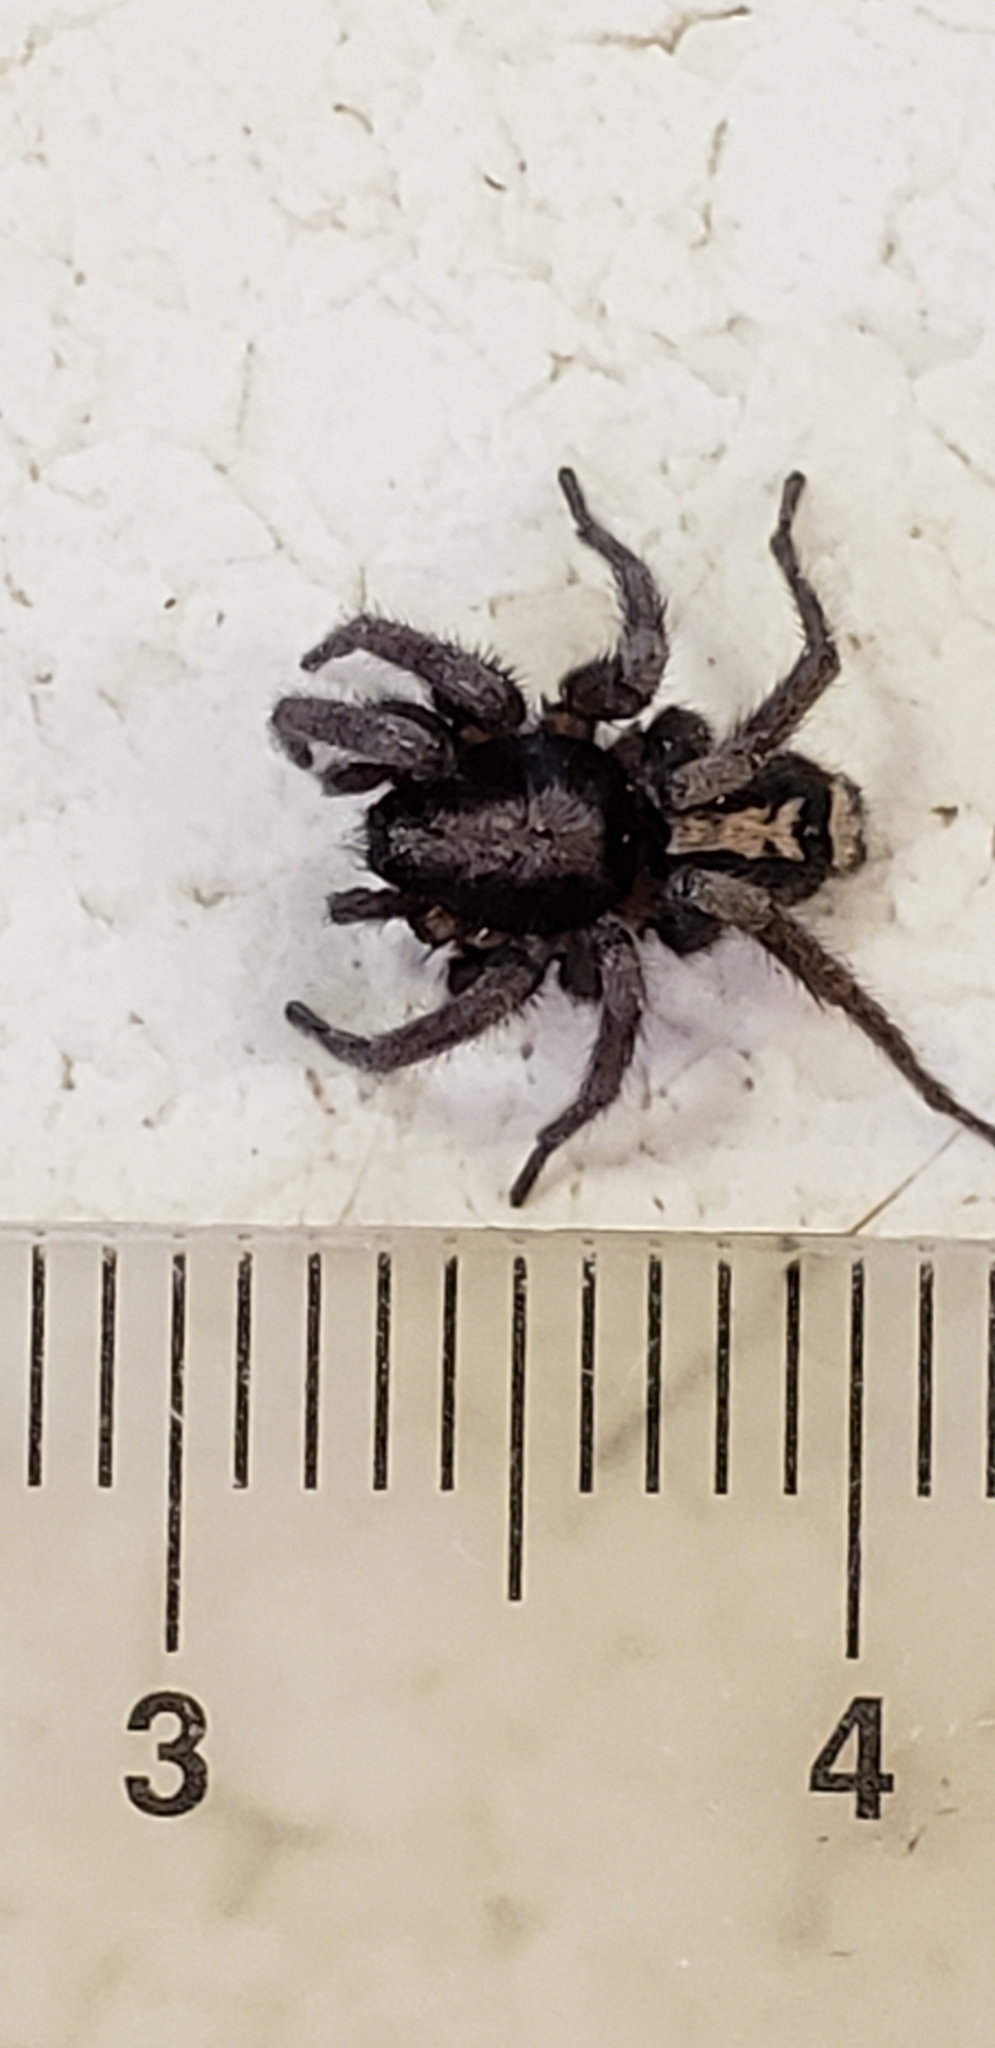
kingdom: Animalia
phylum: Arthropoda
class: Arachnida
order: Araneae
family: Gnaphosidae
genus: Herpyllus
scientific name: Herpyllus ecclesiasticus
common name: Eastern parson spider
